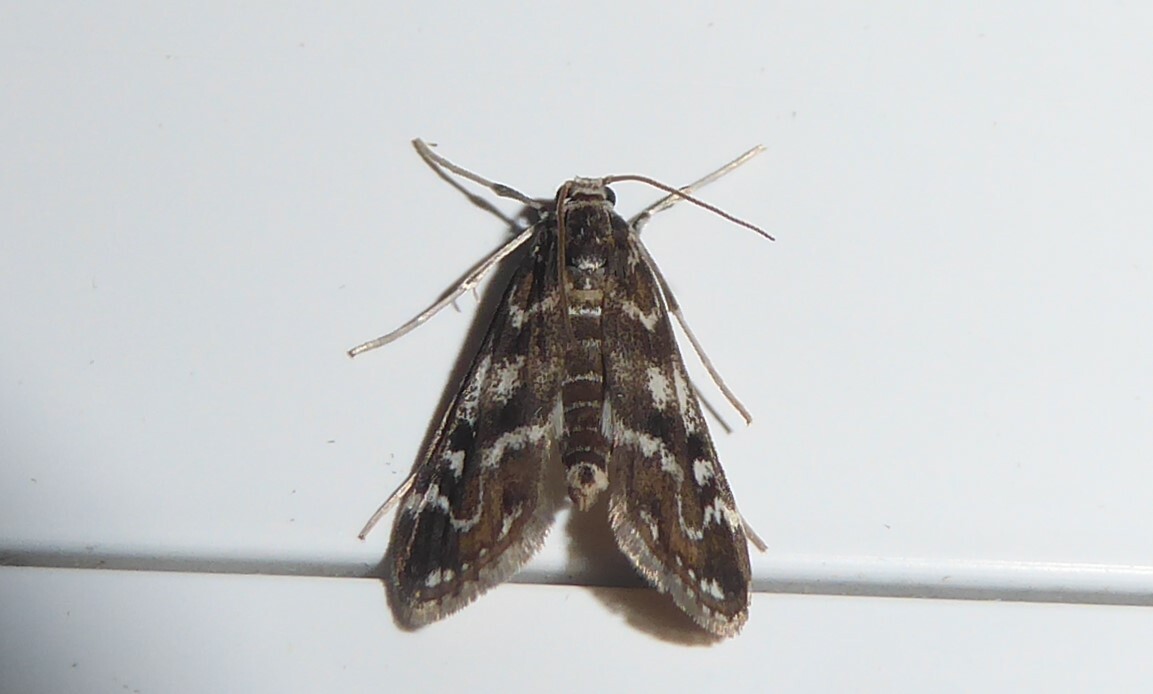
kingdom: Animalia
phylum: Arthropoda
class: Insecta
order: Lepidoptera
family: Crambidae
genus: Hygraula
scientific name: Hygraula nitens
